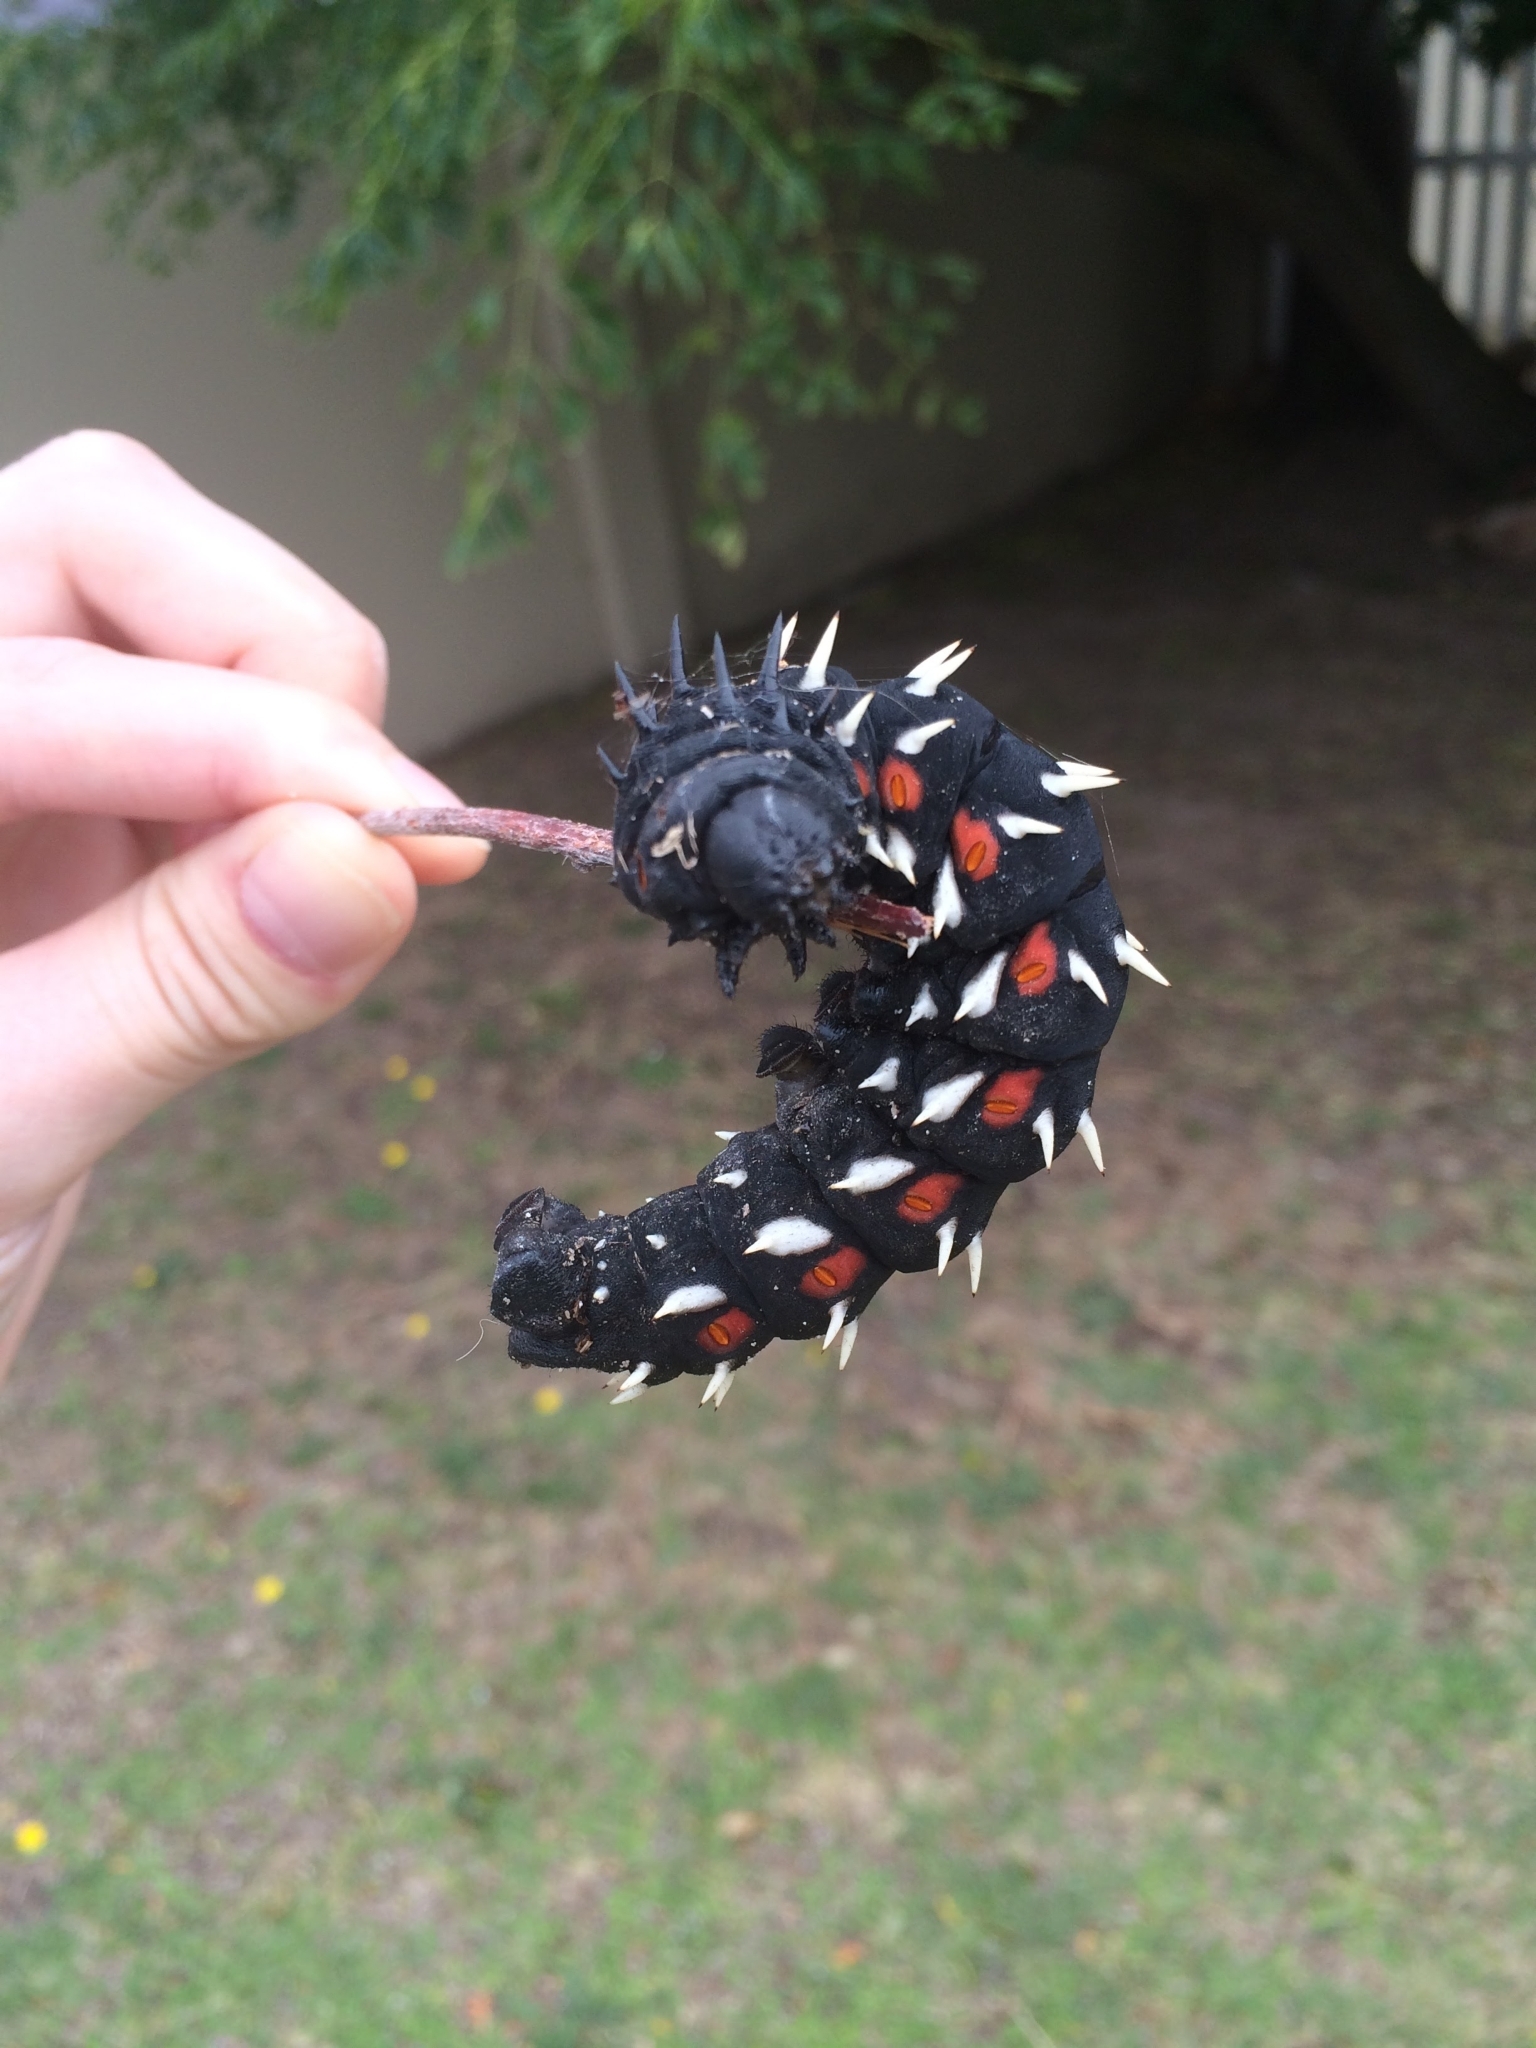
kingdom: Animalia
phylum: Arthropoda
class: Insecta
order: Lepidoptera
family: Saturniidae
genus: Bunaea
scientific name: Bunaea alcinoe
